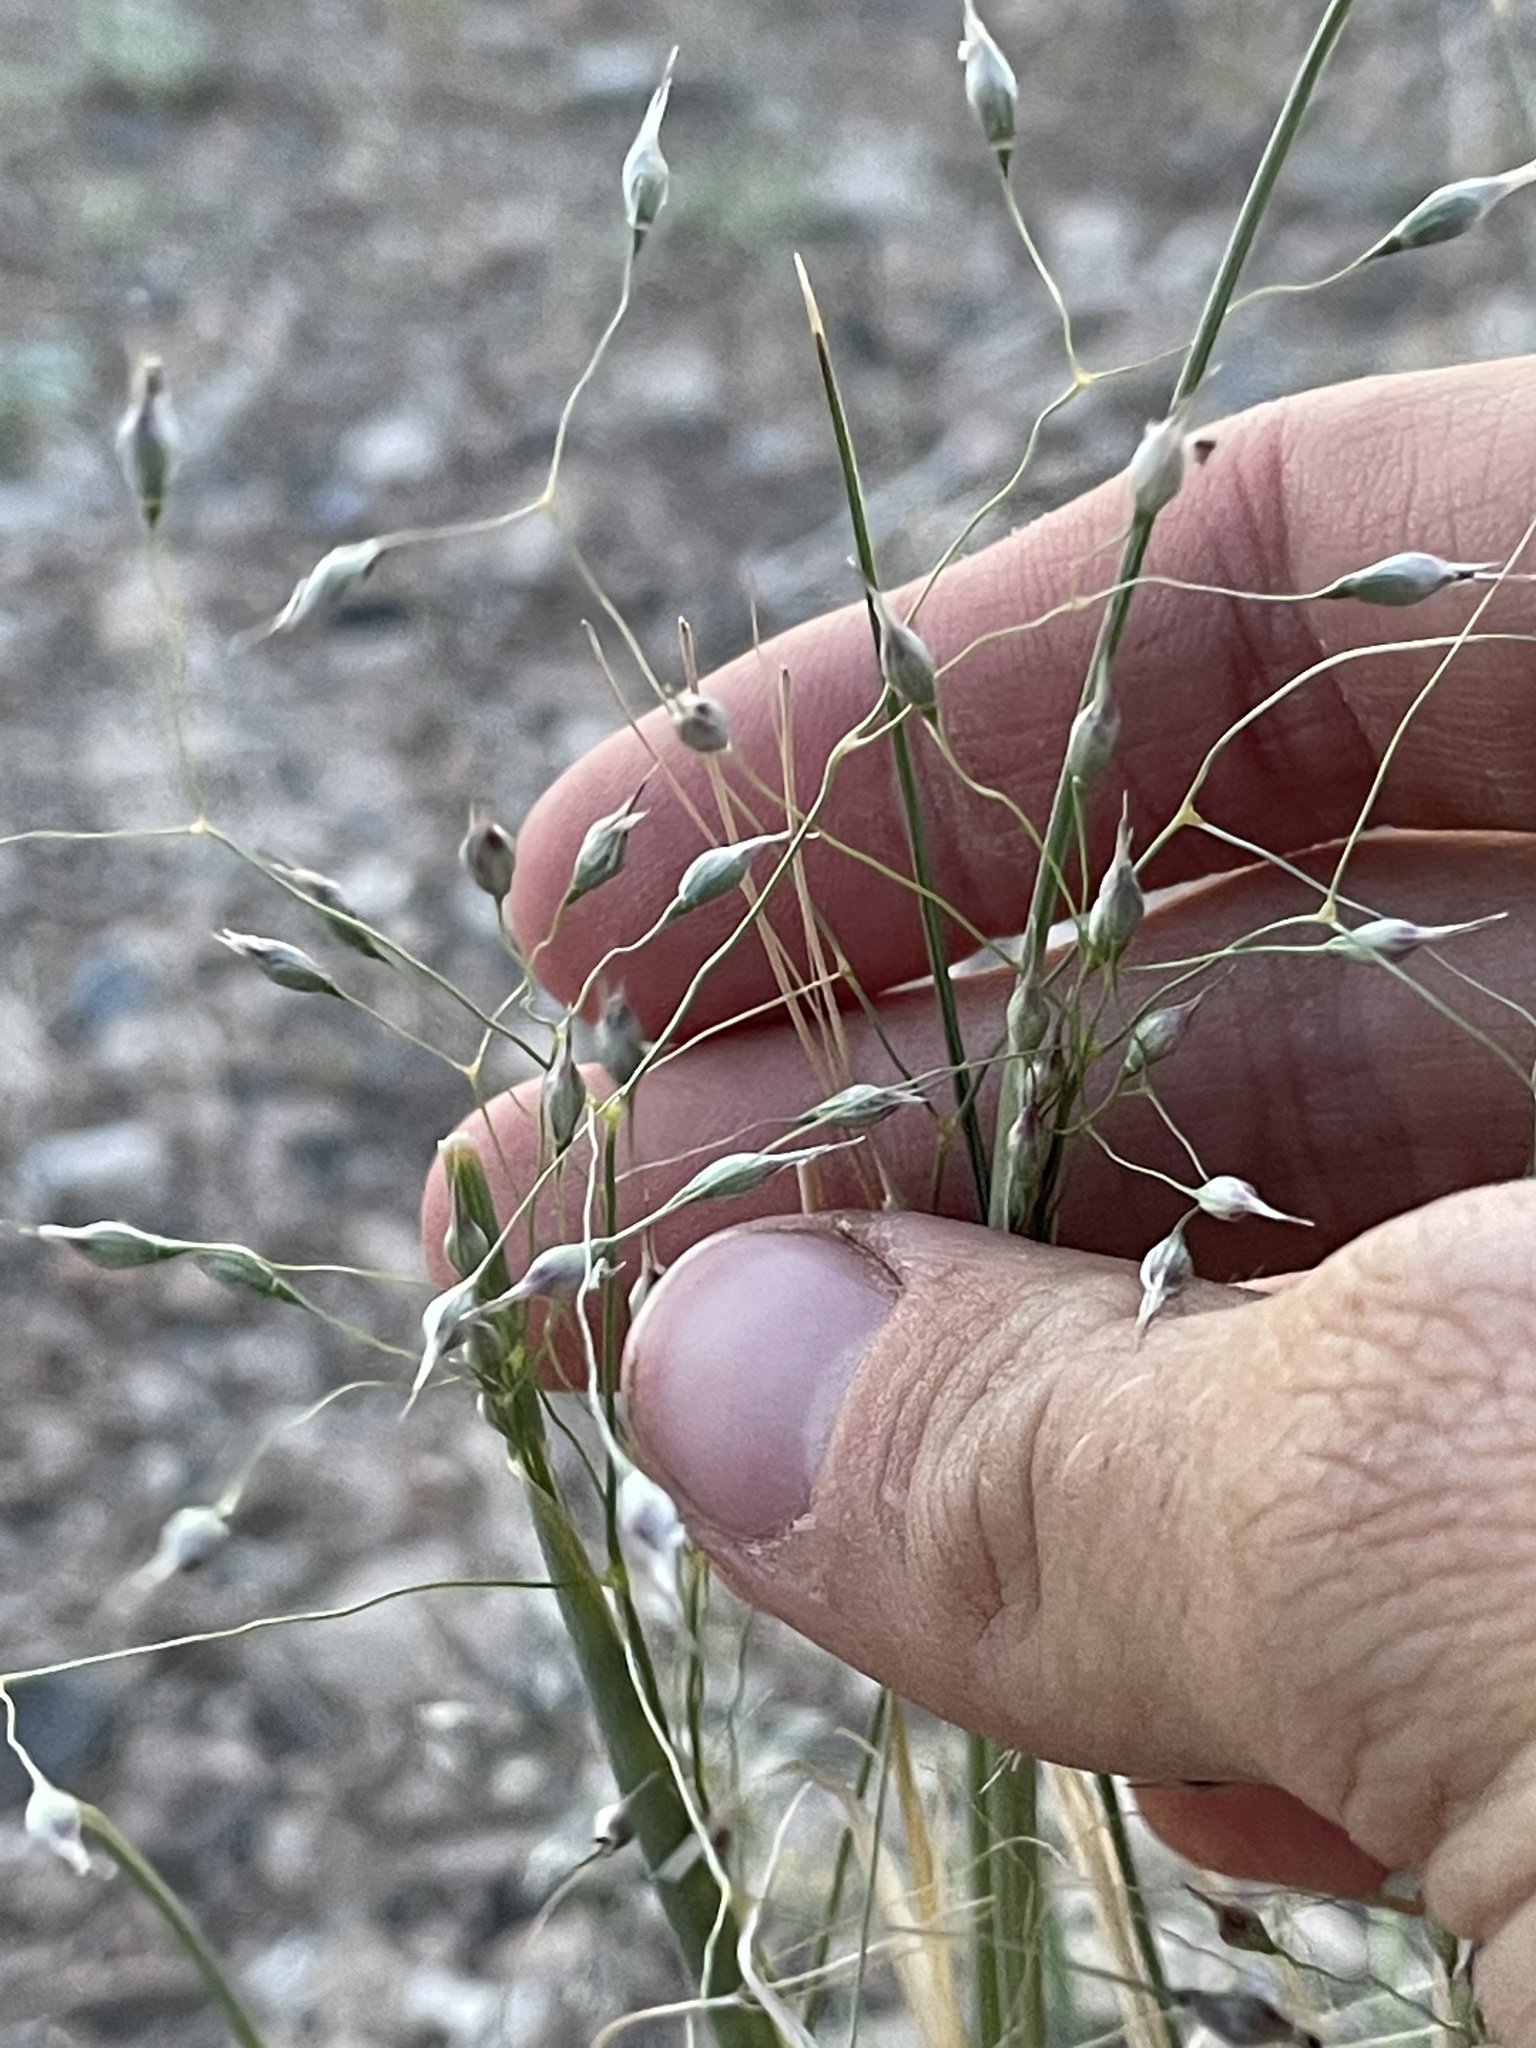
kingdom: Plantae
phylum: Tracheophyta
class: Liliopsida
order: Poales
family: Poaceae
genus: Eriocoma
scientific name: Eriocoma hymenoides
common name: Indian mountain ricegrass
